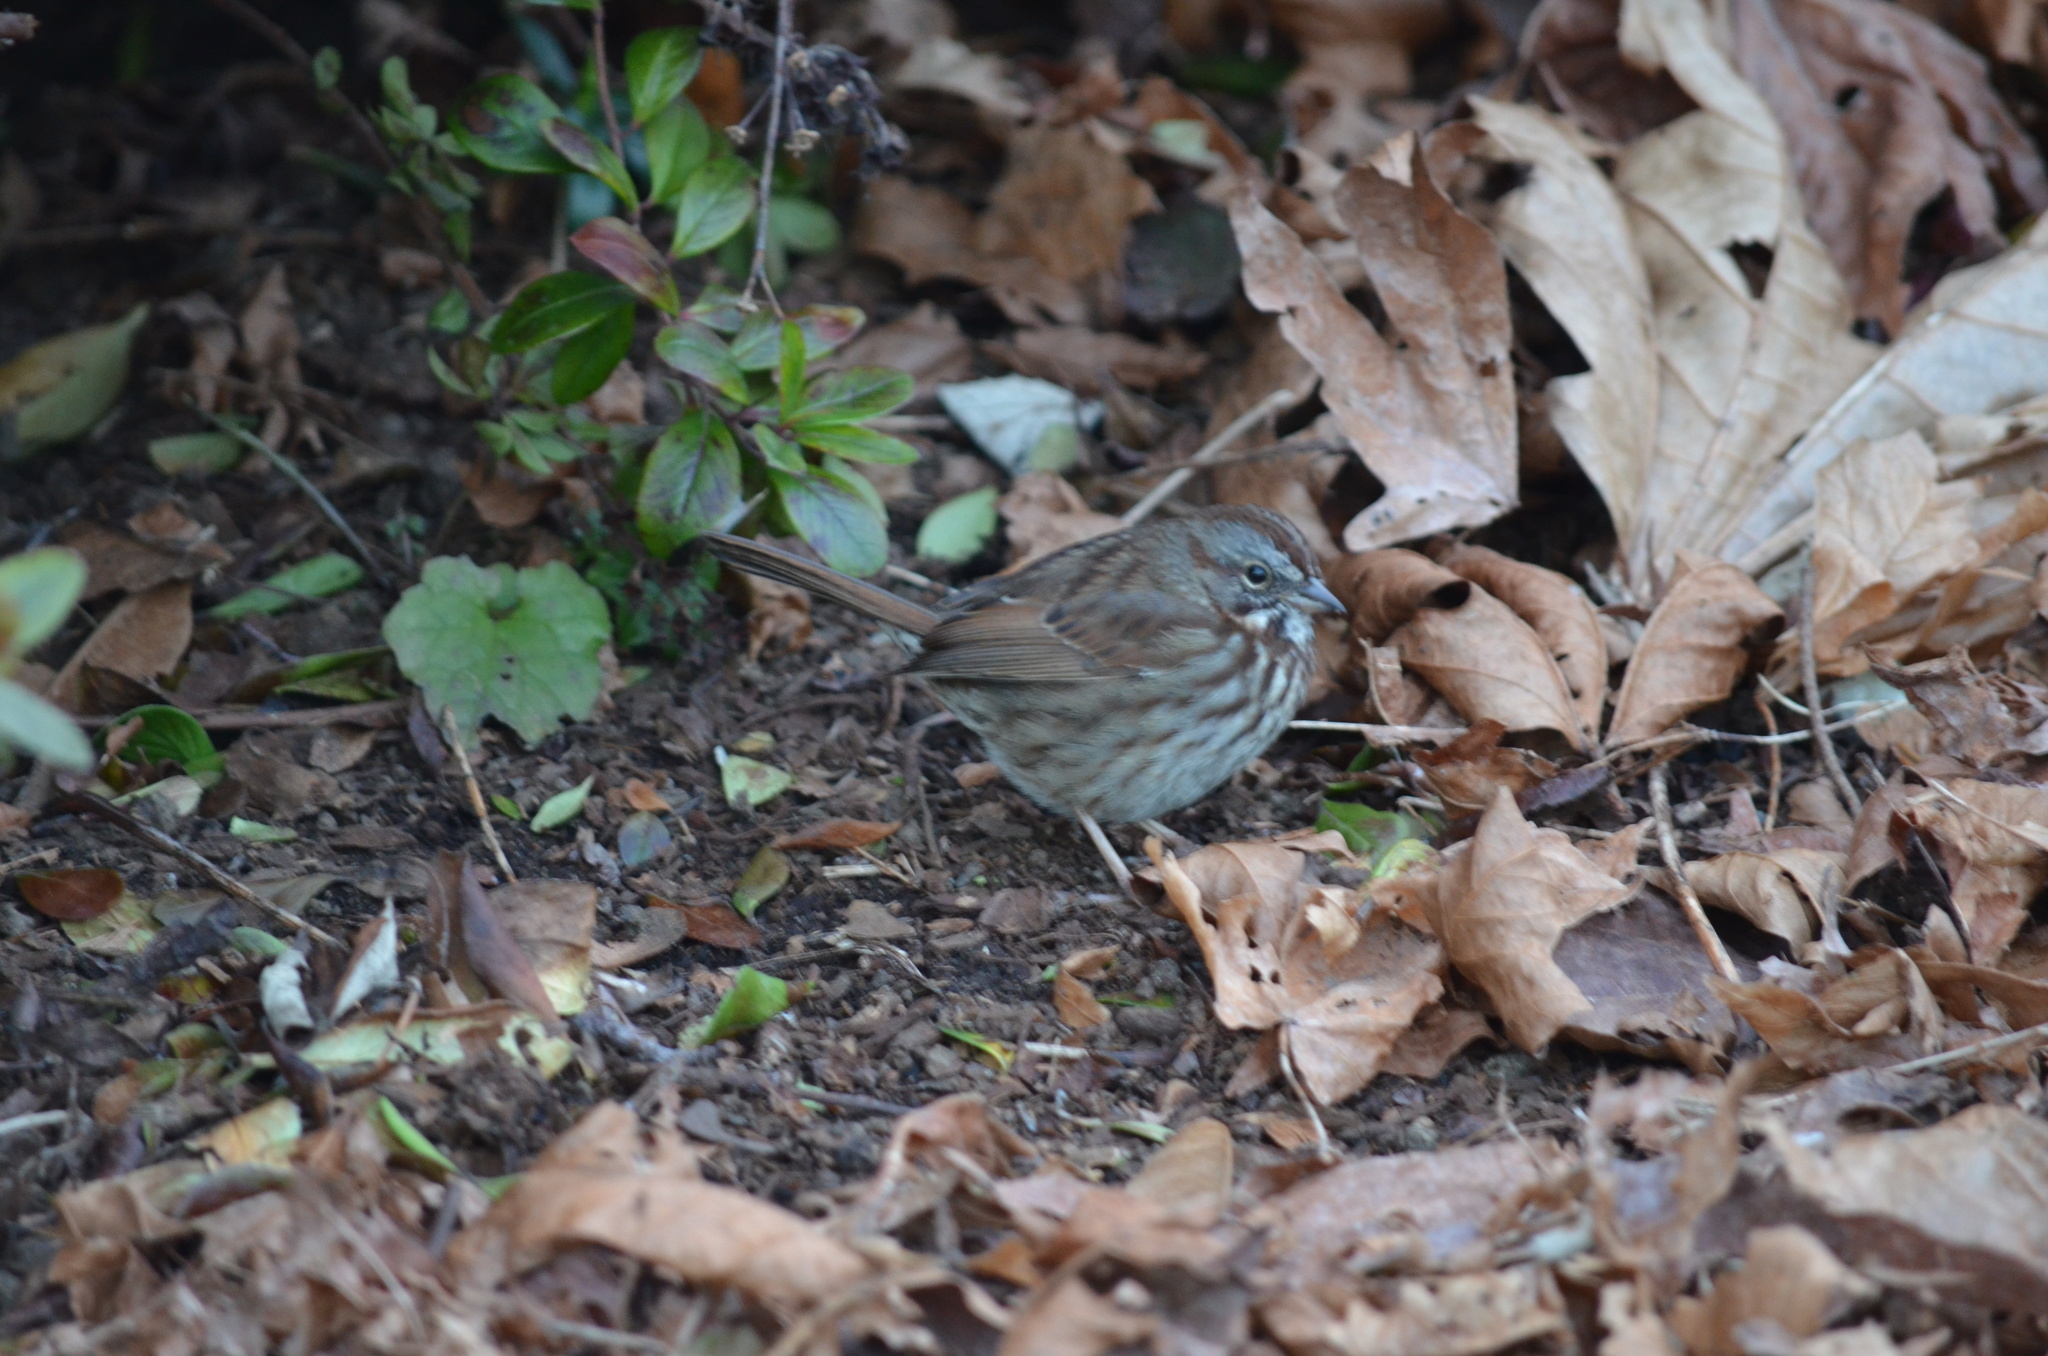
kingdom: Animalia
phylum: Chordata
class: Aves
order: Passeriformes
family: Passerellidae
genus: Melospiza
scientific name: Melospiza melodia
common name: Song sparrow
